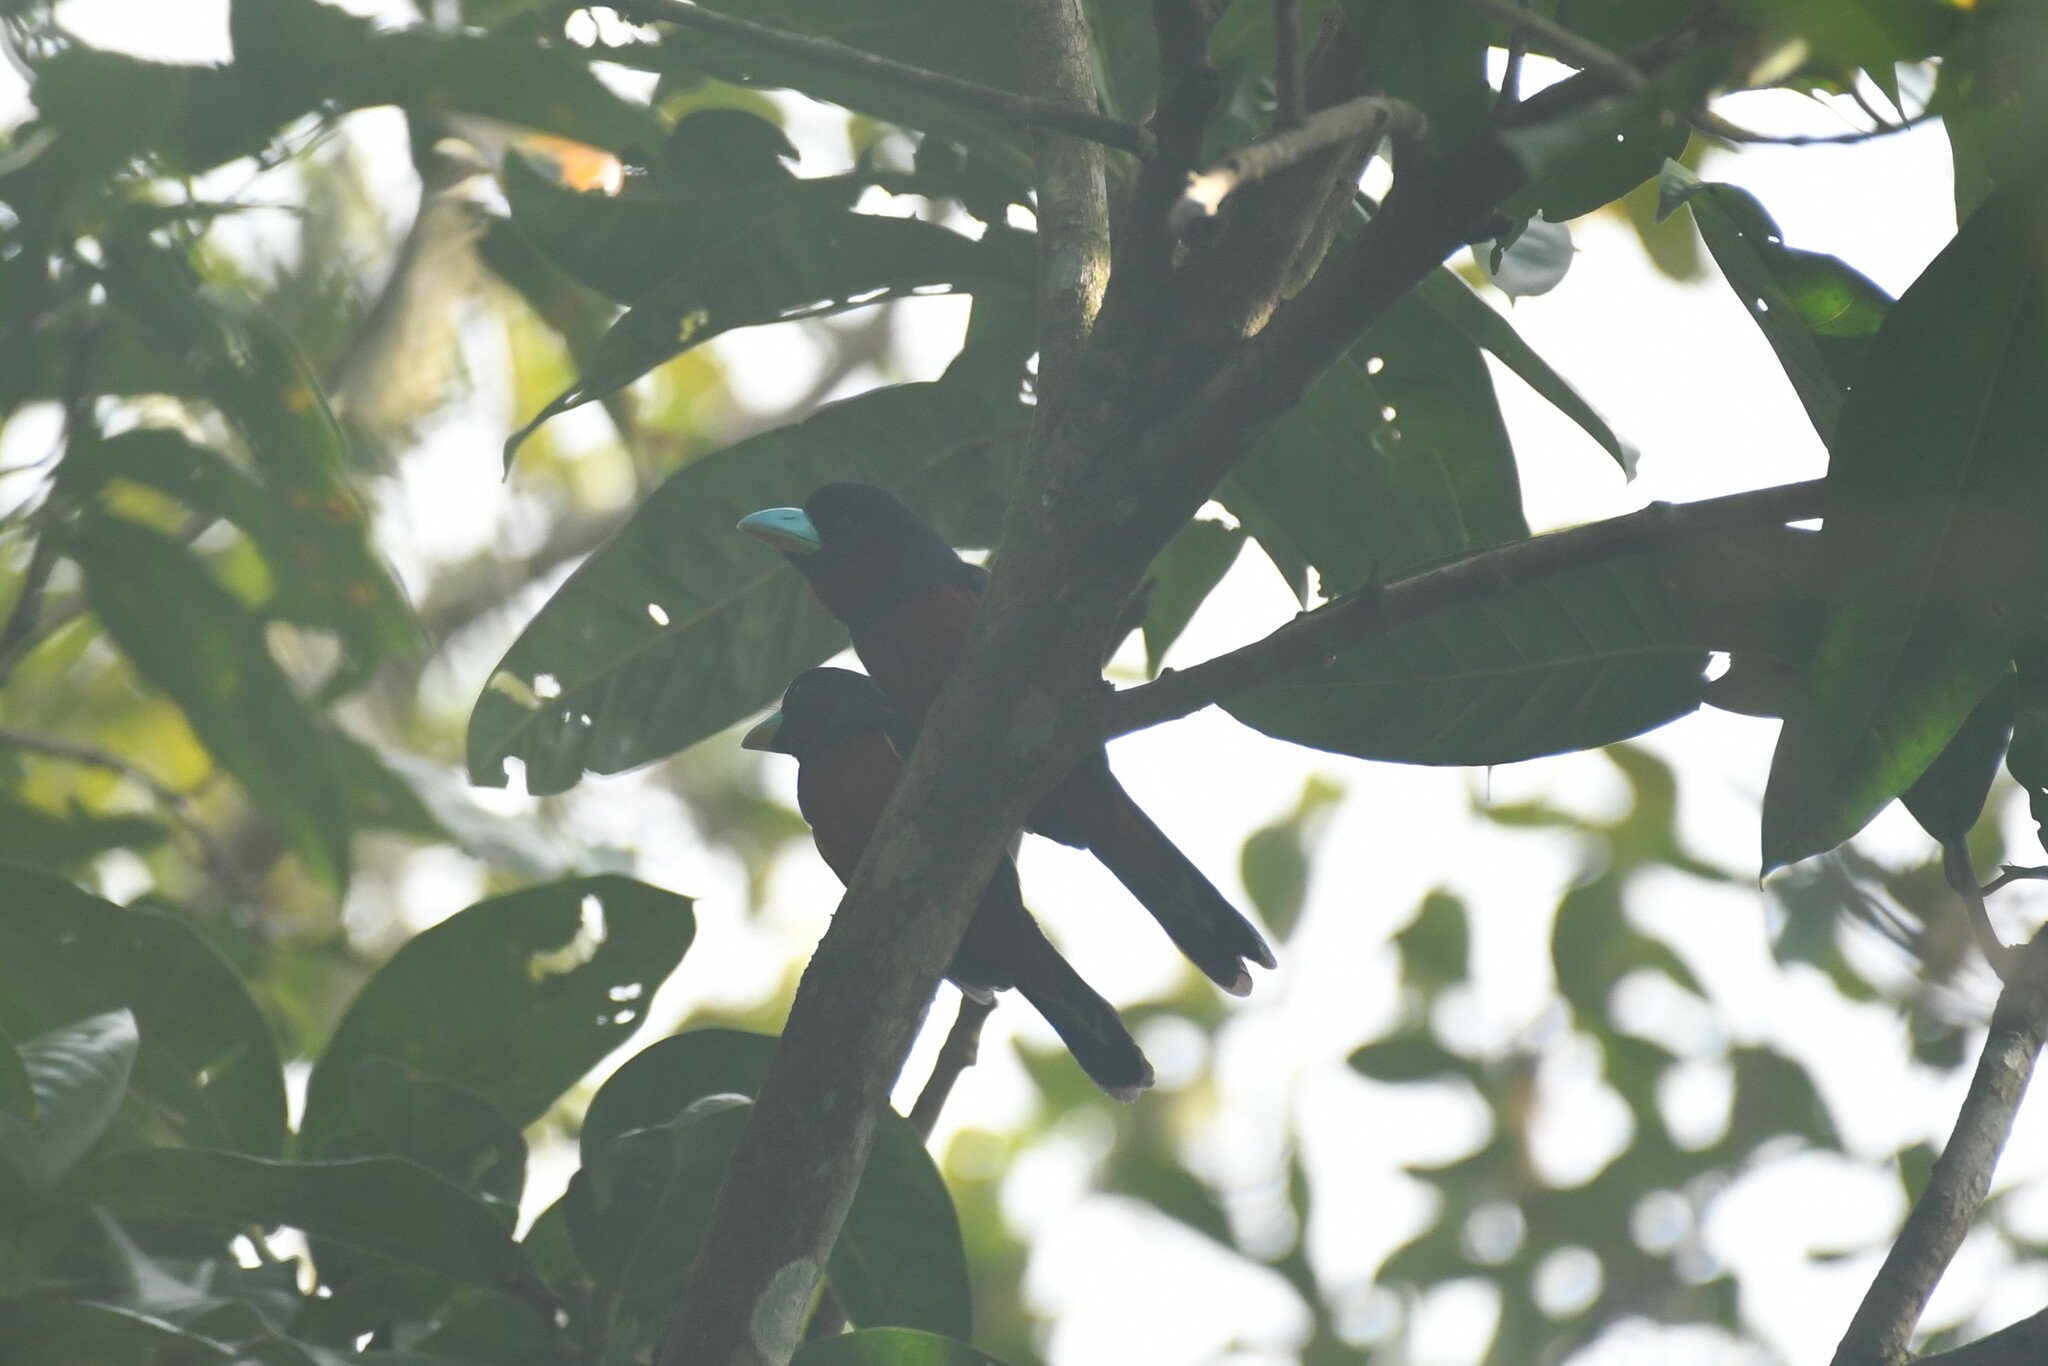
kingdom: Animalia
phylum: Chordata
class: Aves
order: Passeriformes
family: Eurylaimidae
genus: Cymbirhynchus
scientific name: Cymbirhynchus macrorhynchos
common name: Black-and-red broadbill
